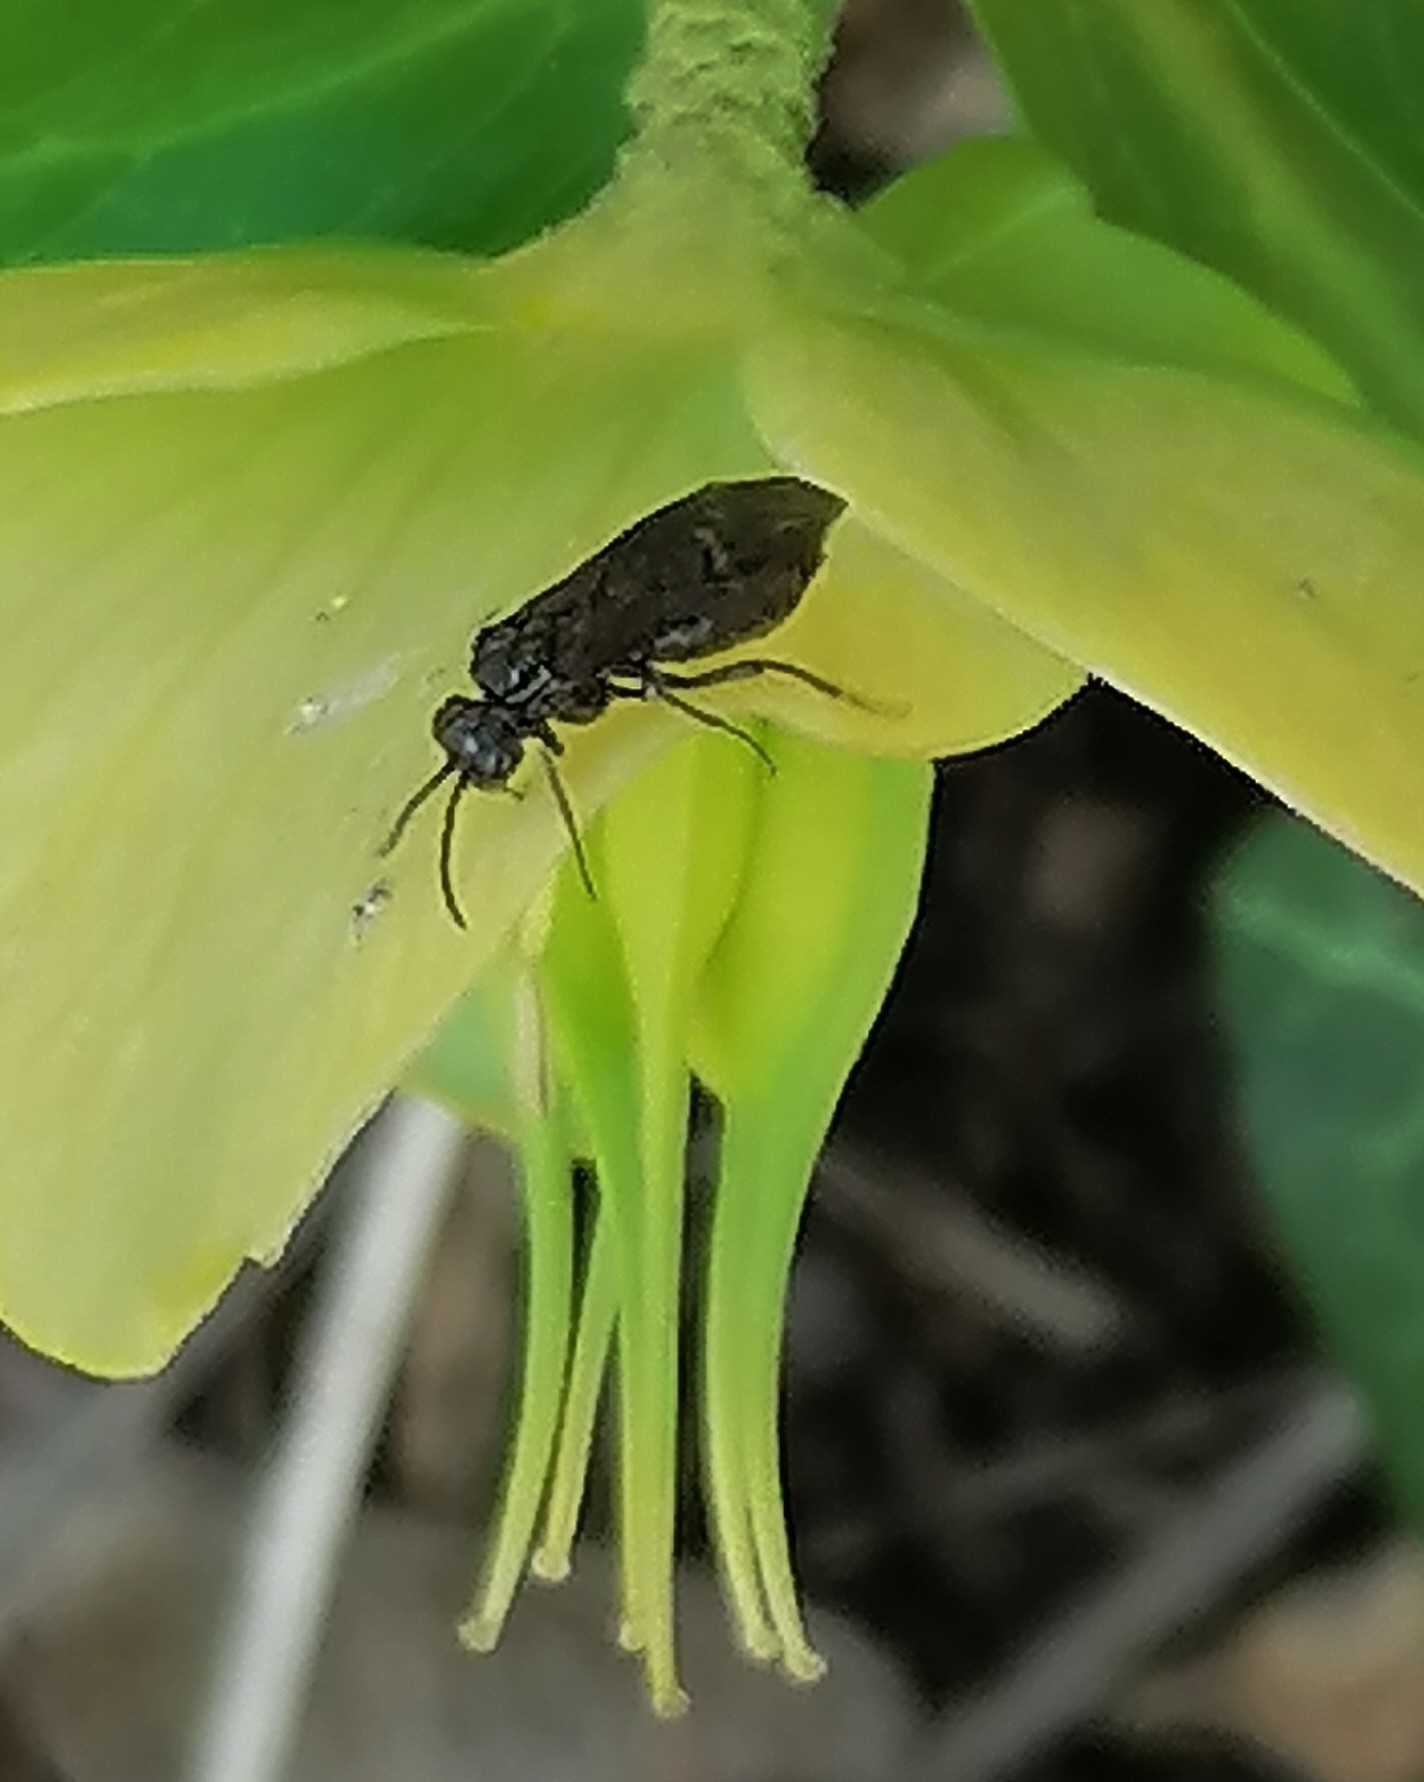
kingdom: Animalia
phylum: Arthropoda
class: Insecta
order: Hymenoptera
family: Tenthredinidae
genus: Monophadnus
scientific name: Monophadnus taegeri
